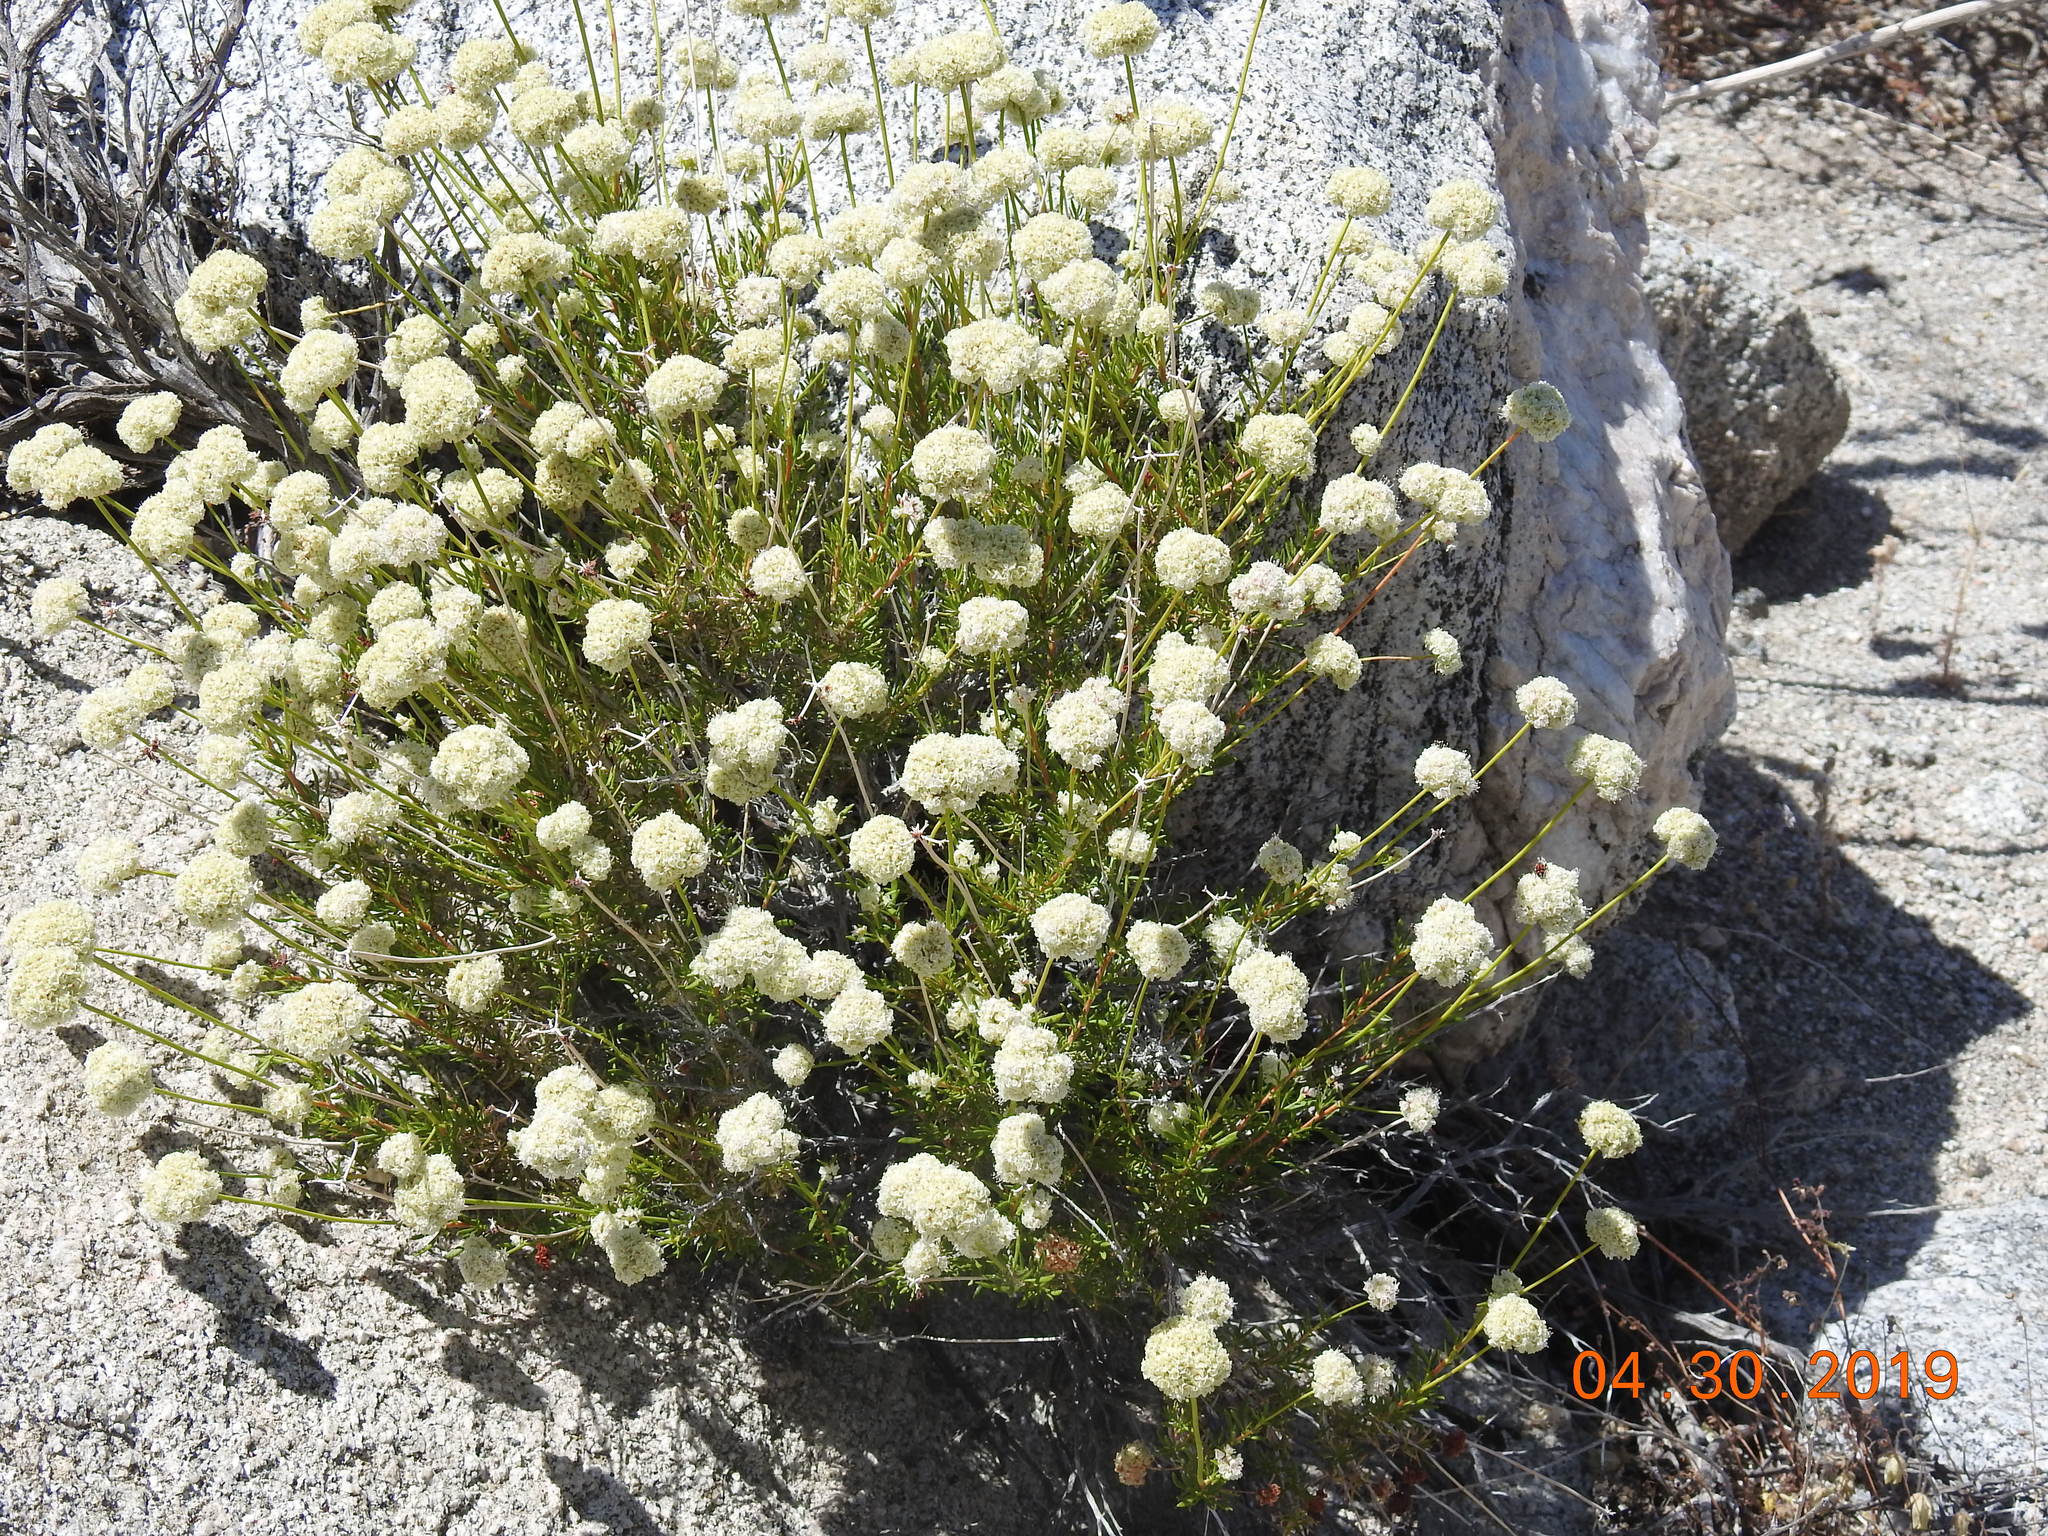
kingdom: Plantae
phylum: Tracheophyta
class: Magnoliopsida
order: Caryophyllales
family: Polygonaceae
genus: Eriogonum
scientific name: Eriogonum fasciculatum
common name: California wild buckwheat
